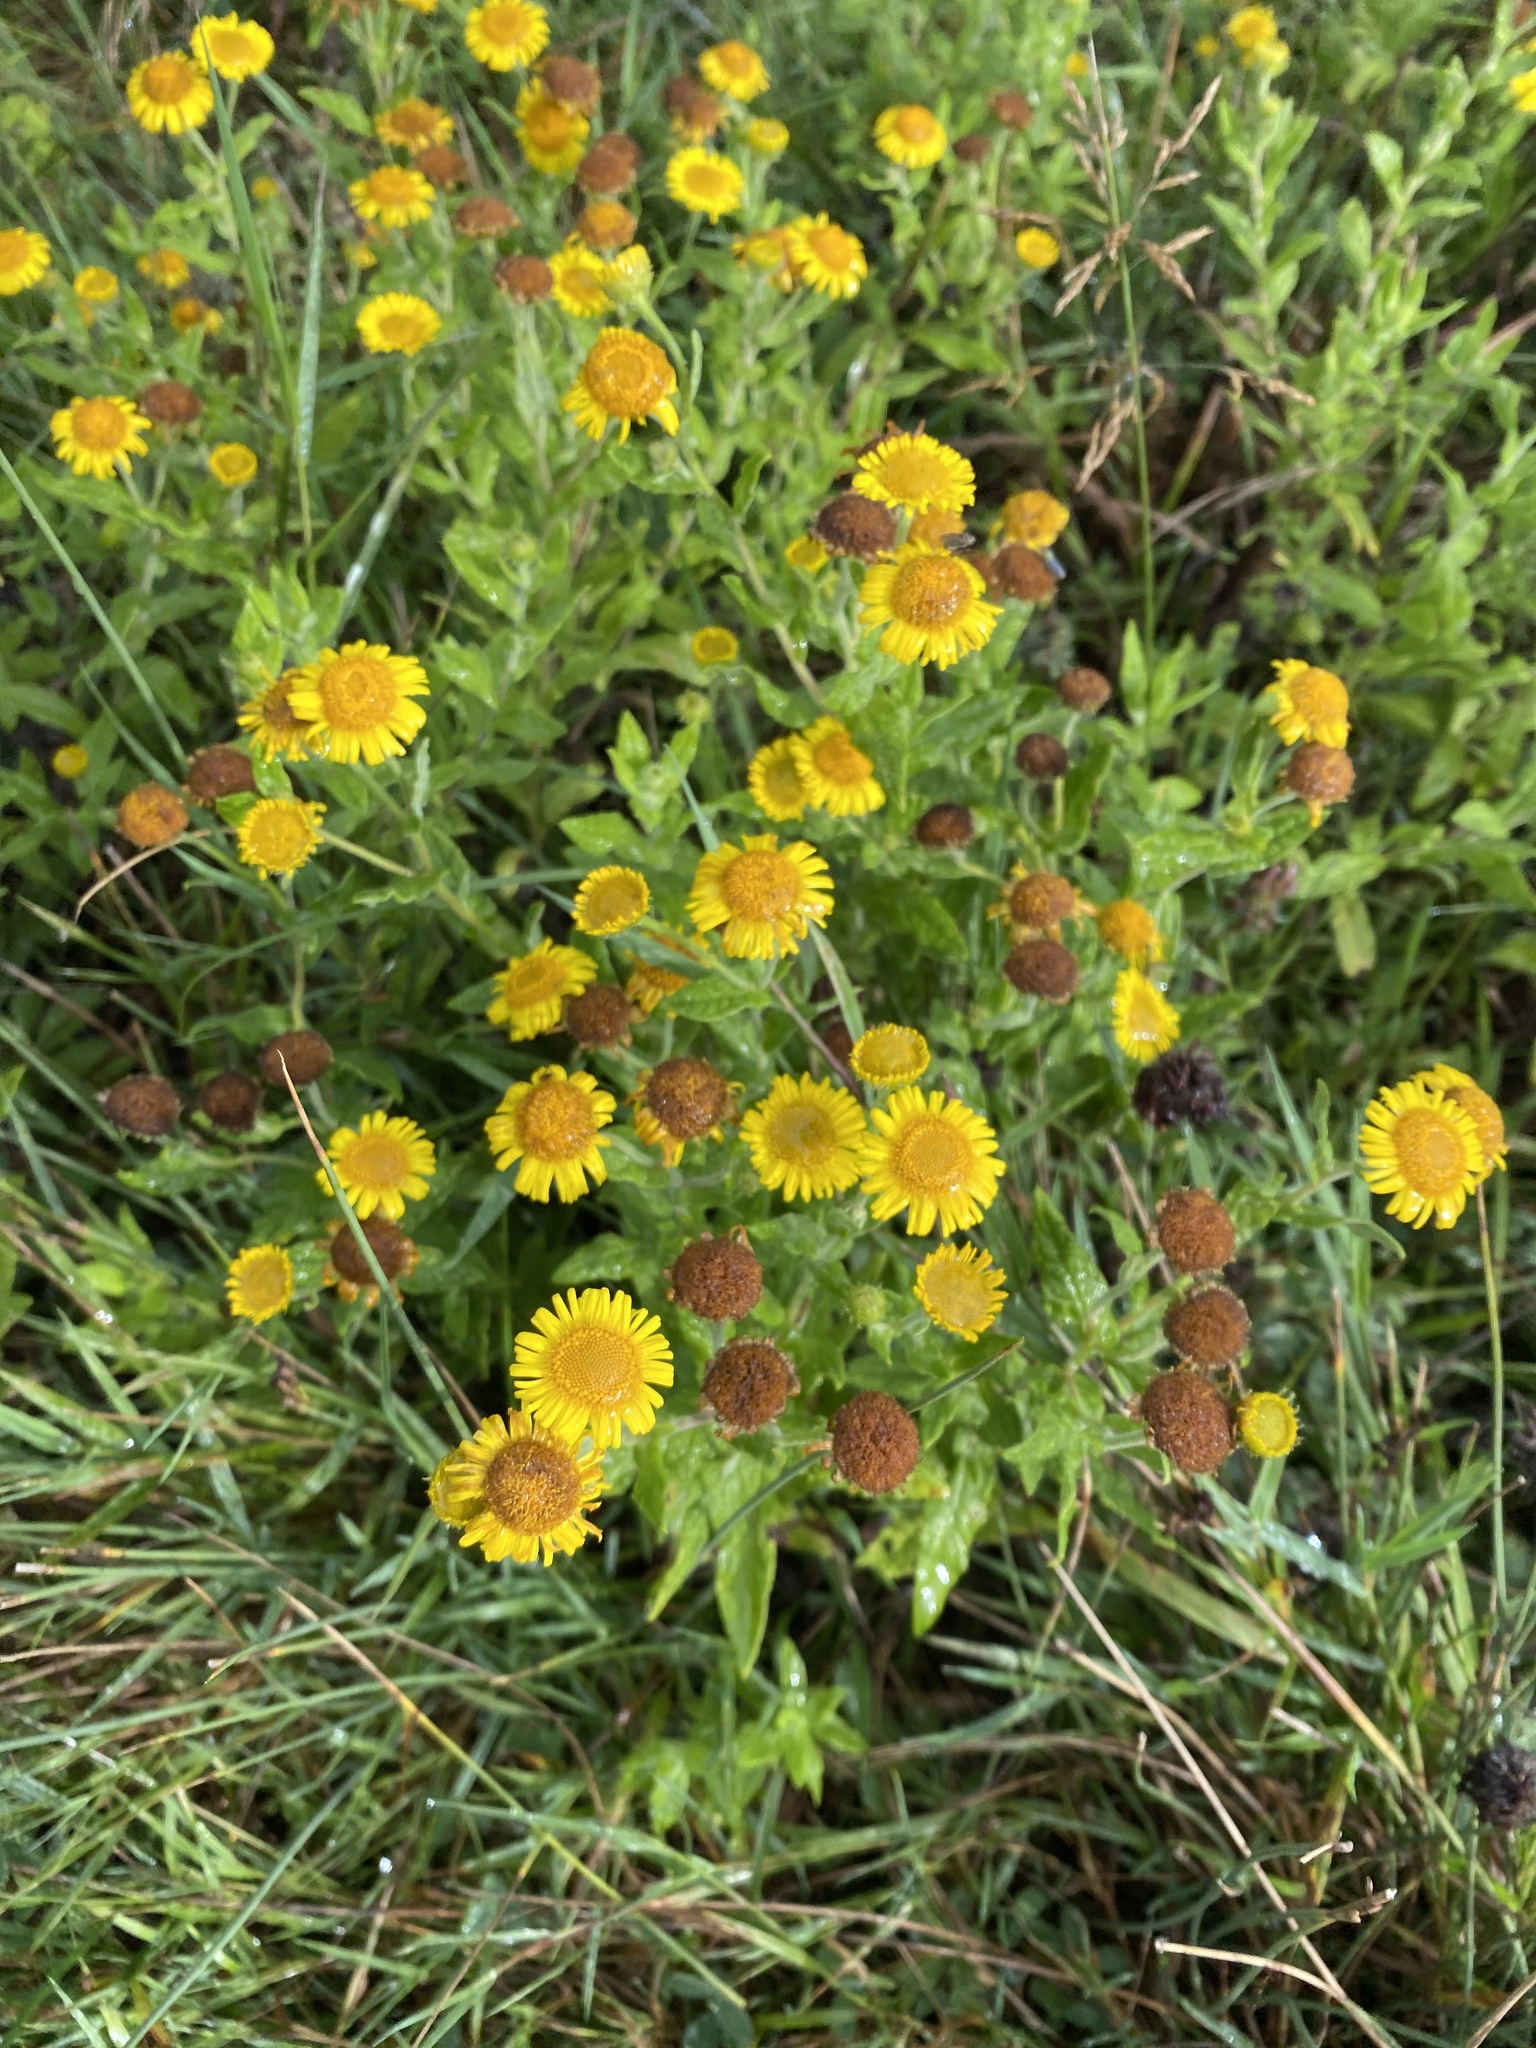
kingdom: Plantae
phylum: Tracheophyta
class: Magnoliopsida
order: Asterales
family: Asteraceae
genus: Pulicaria
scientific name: Pulicaria dysenterica
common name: Common fleabane
